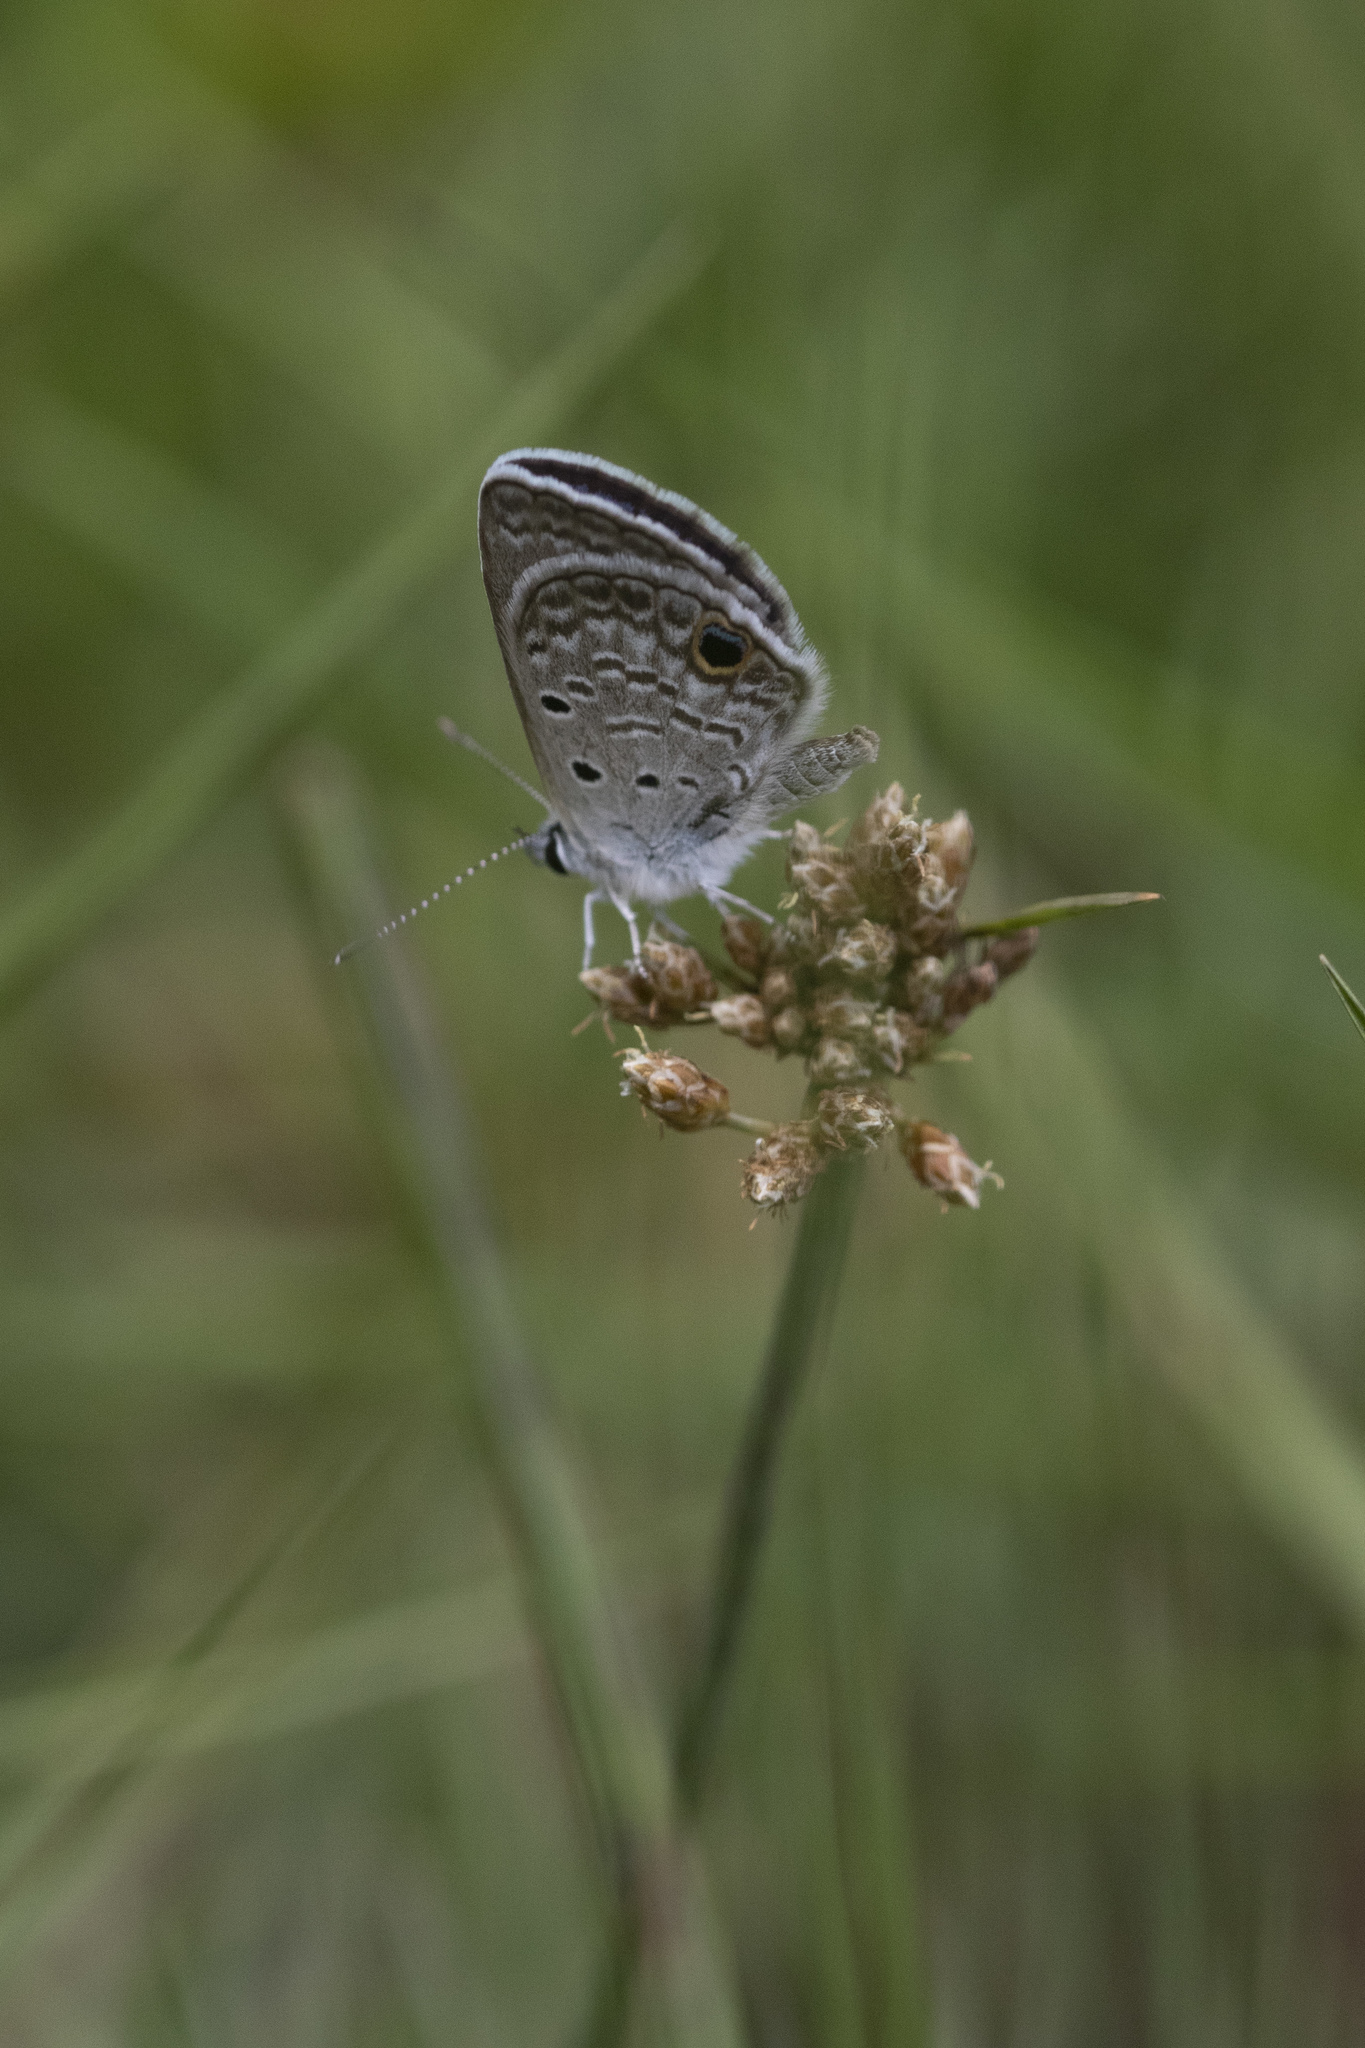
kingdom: Animalia
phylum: Arthropoda
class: Insecta
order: Lepidoptera
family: Lycaenidae
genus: Hemiargus
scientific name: Hemiargus ceraunus
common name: Ceraunus blue
